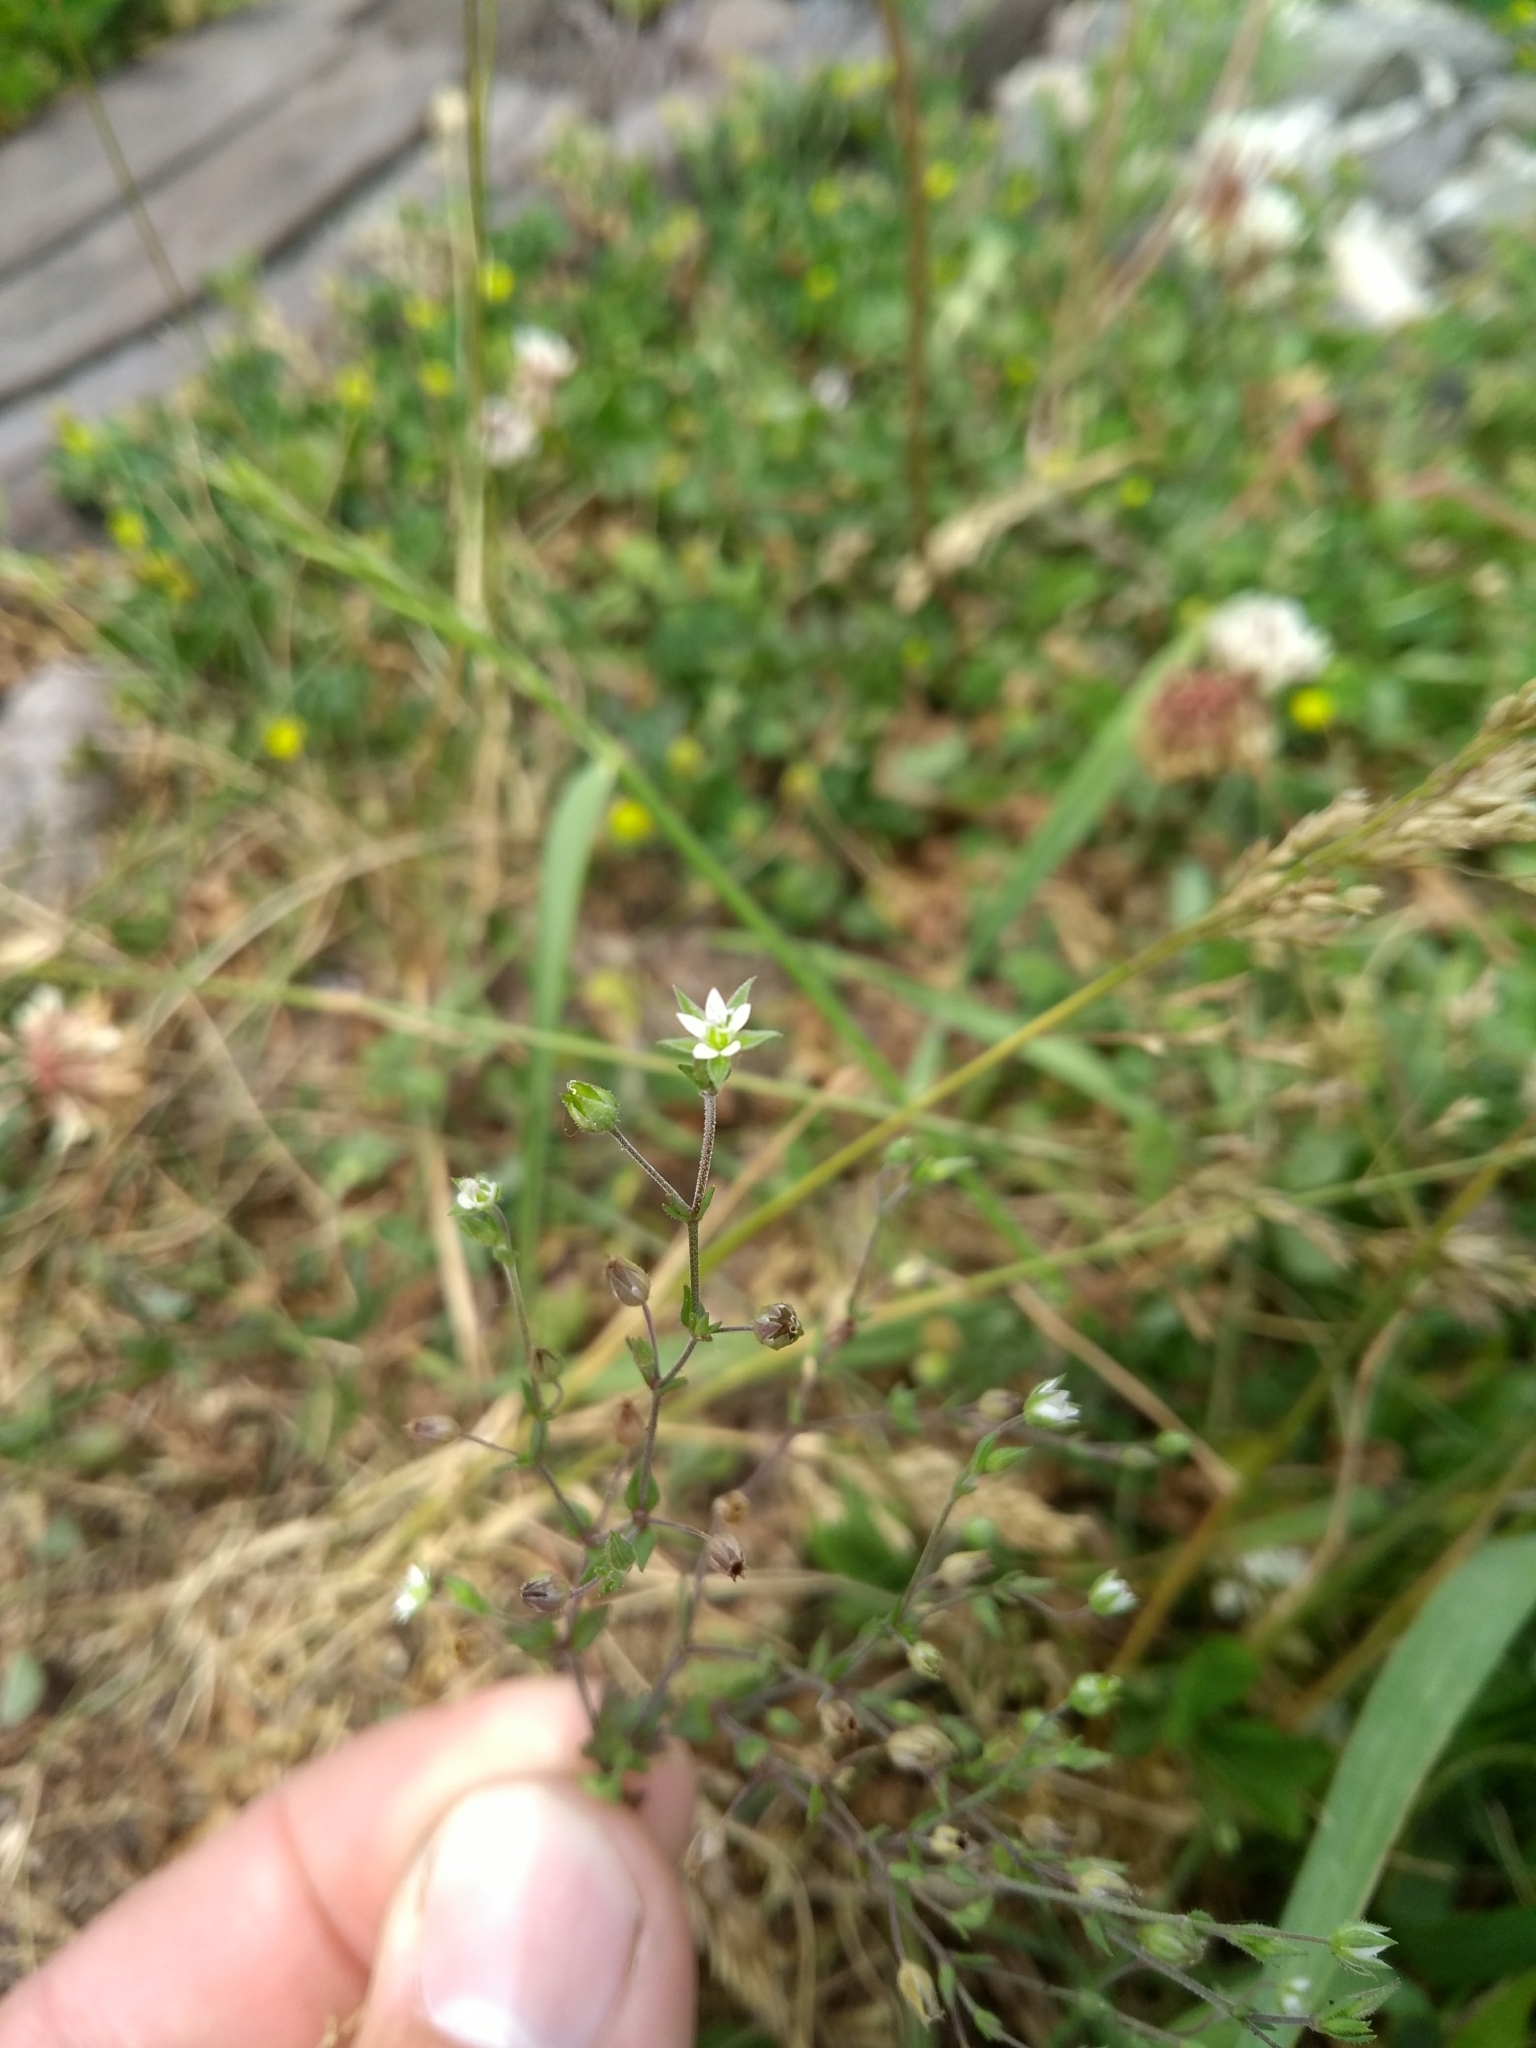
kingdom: Plantae
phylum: Tracheophyta
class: Magnoliopsida
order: Caryophyllales
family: Caryophyllaceae
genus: Arenaria
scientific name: Arenaria serpyllifolia
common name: Thyme-leaved sandwort
